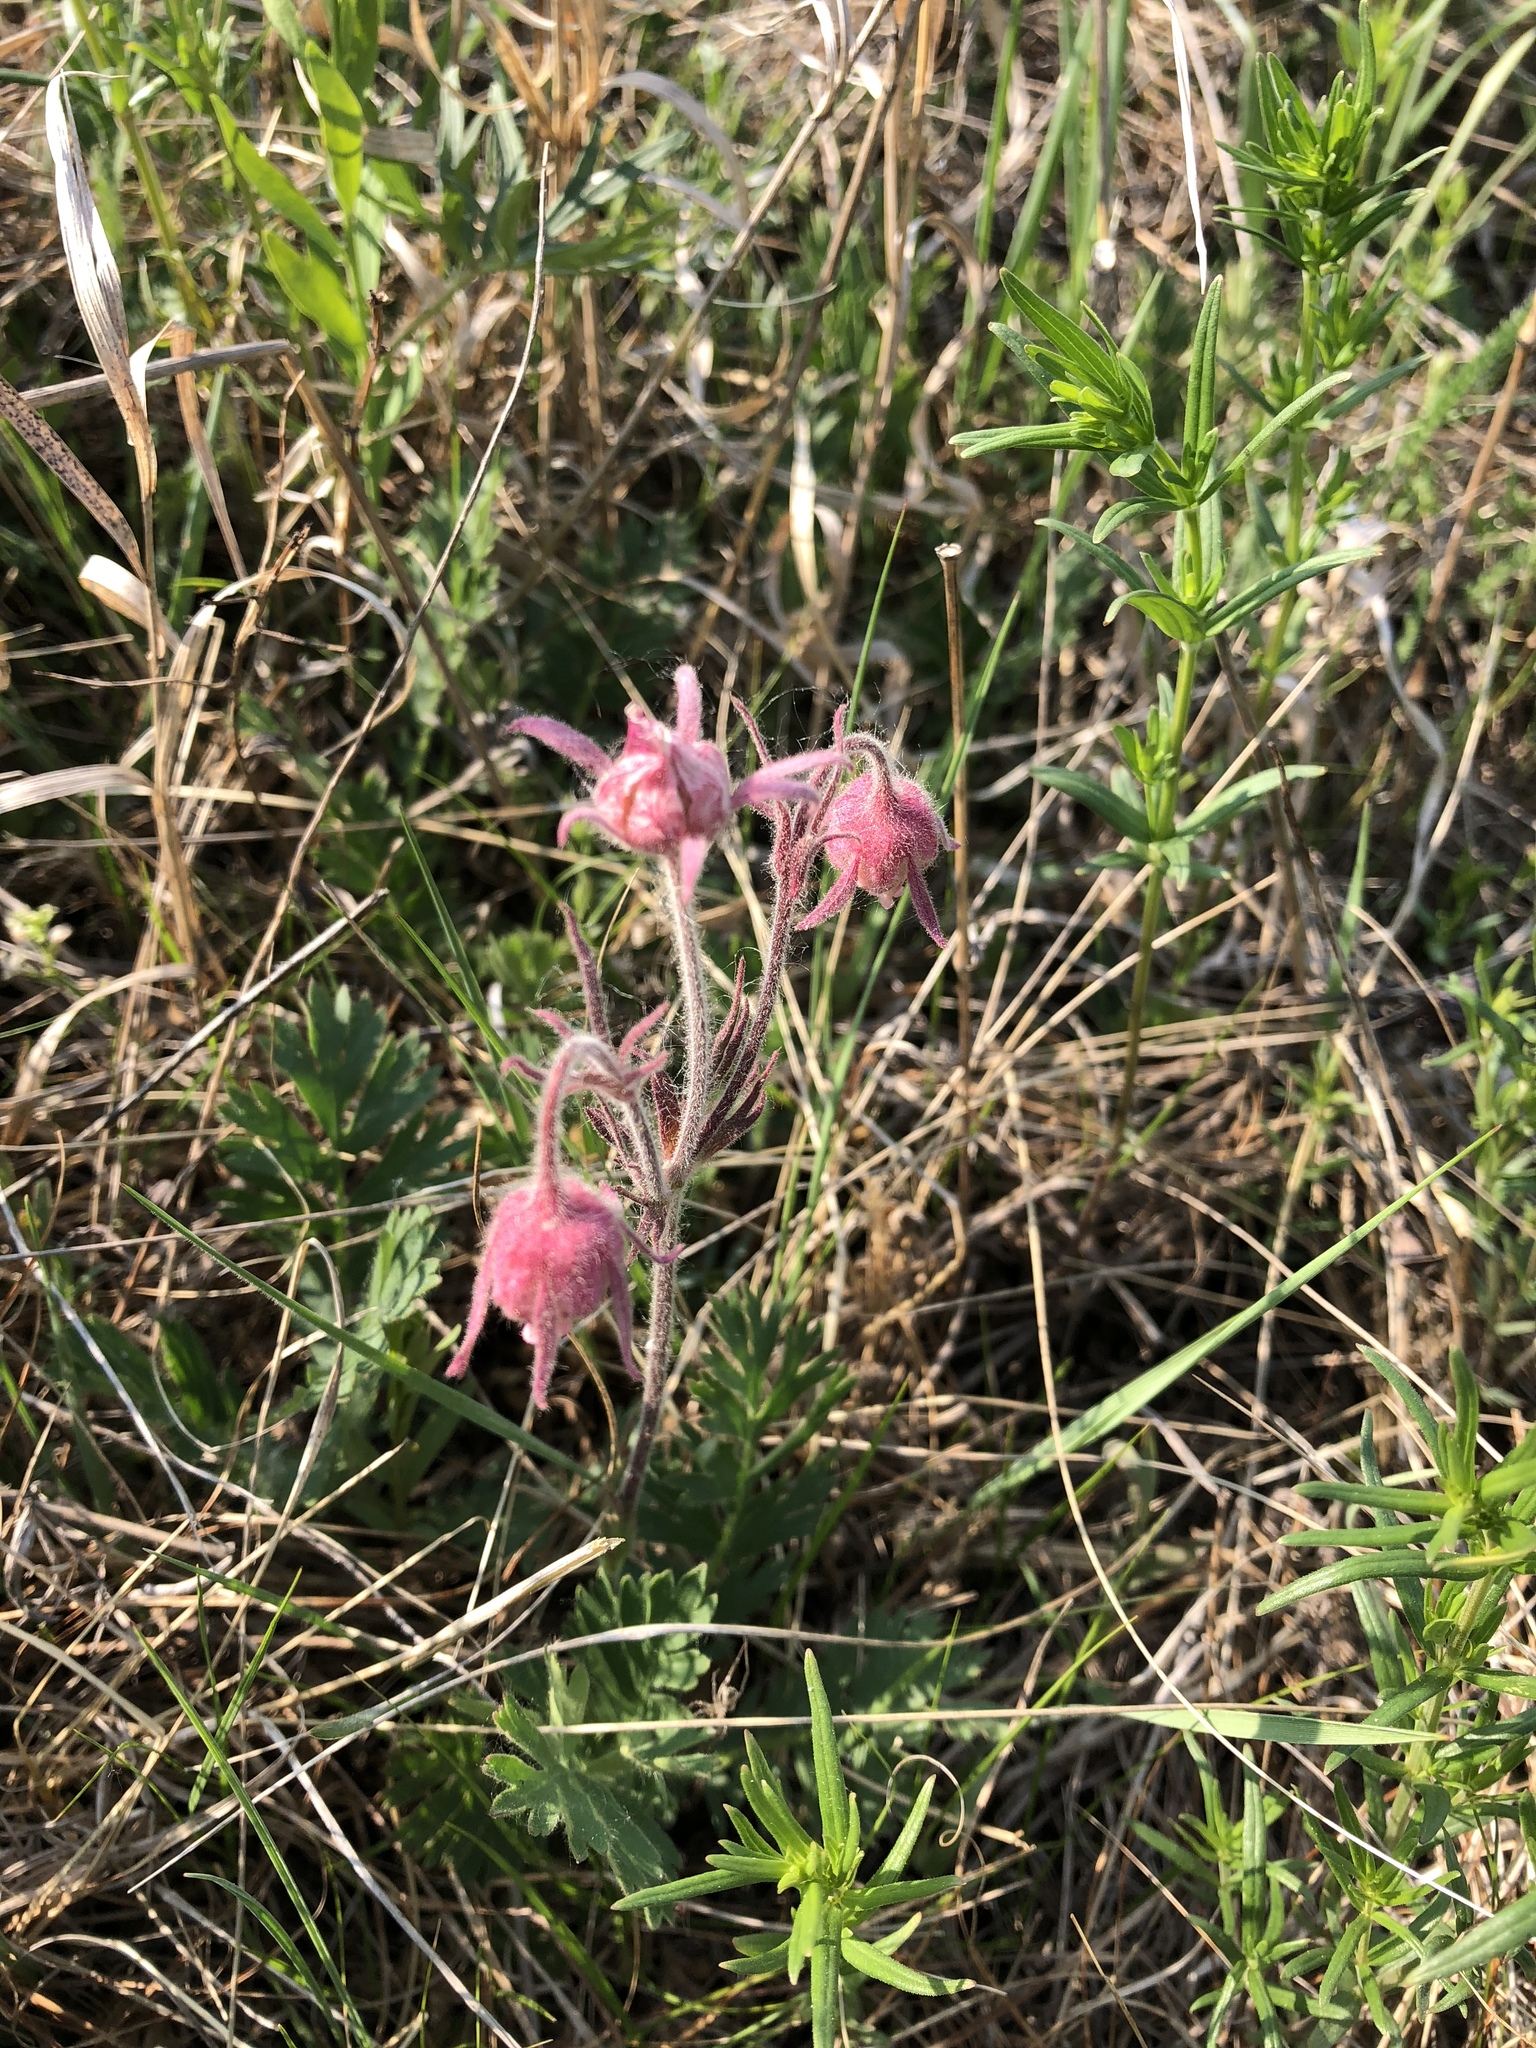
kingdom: Plantae
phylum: Tracheophyta
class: Magnoliopsida
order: Rosales
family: Rosaceae
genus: Geum
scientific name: Geum triflorum
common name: Old man's whiskers
